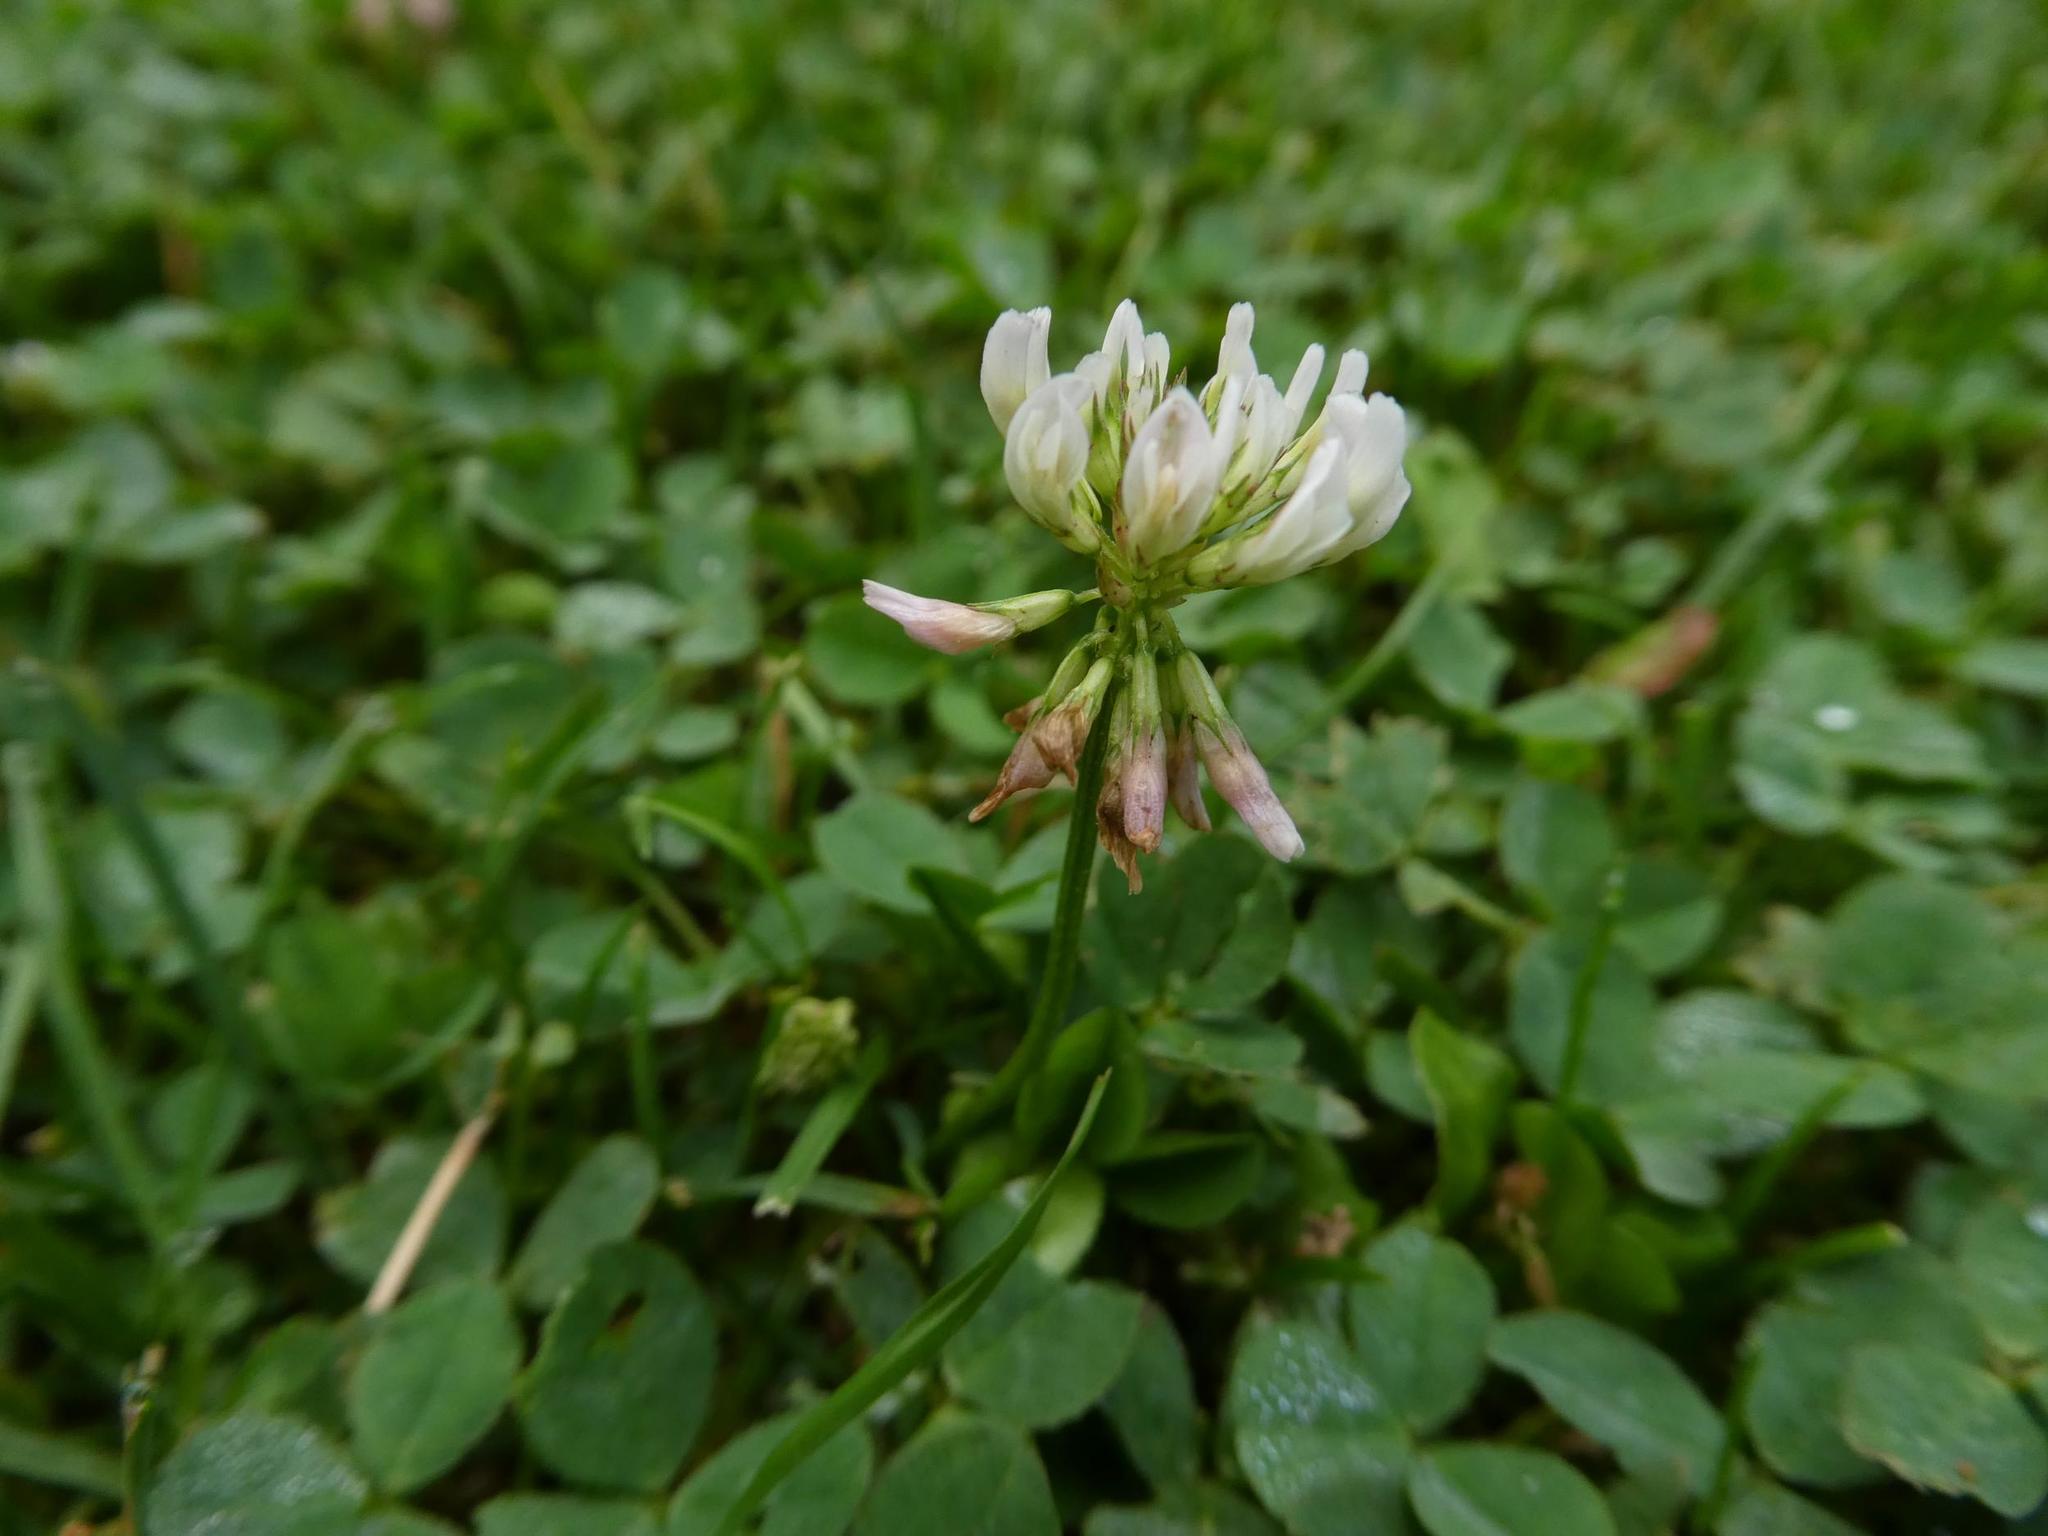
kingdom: Plantae
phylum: Tracheophyta
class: Magnoliopsida
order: Fabales
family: Fabaceae
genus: Trifolium
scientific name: Trifolium repens
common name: White clover
